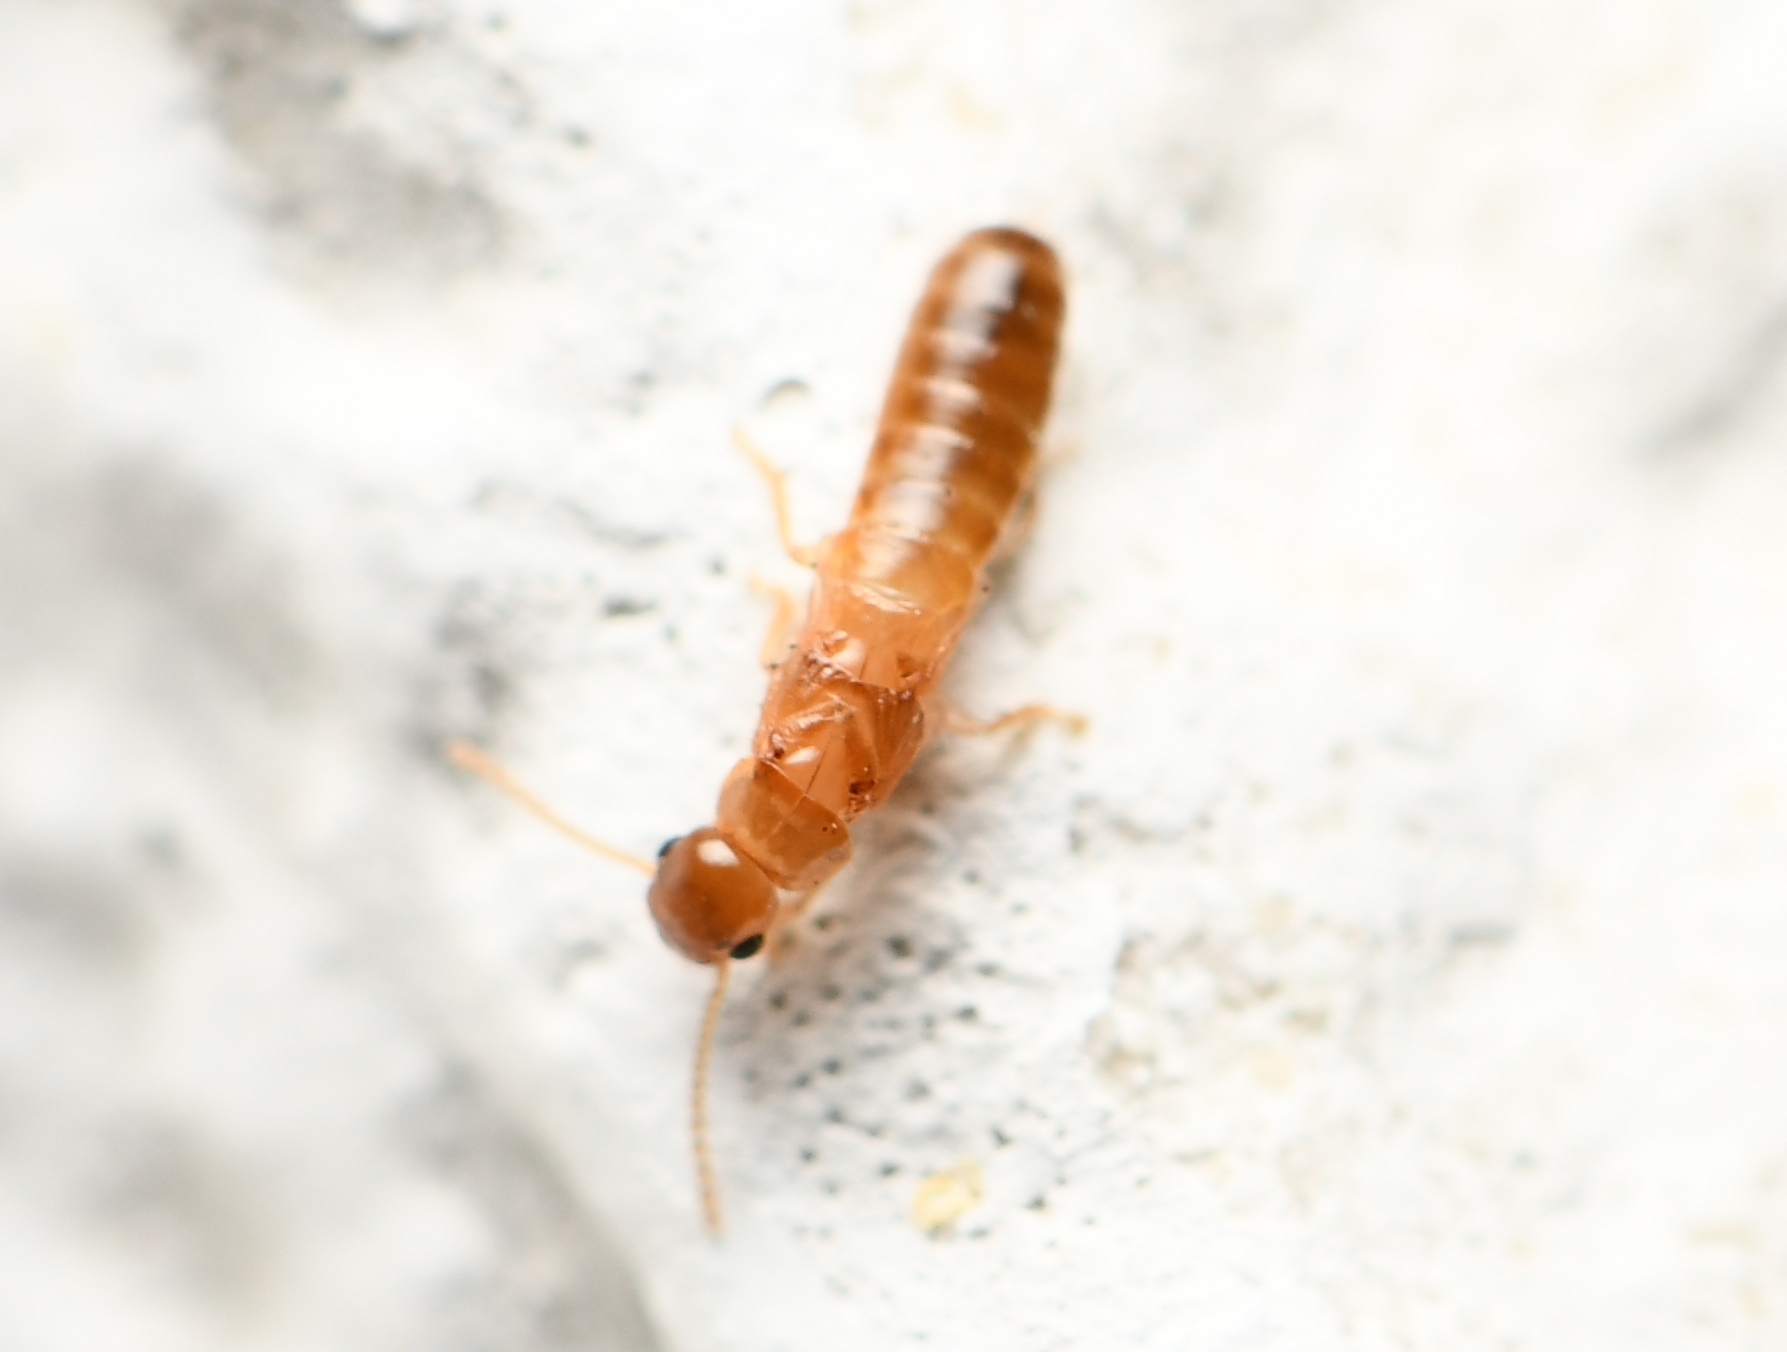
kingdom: Animalia
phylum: Arthropoda
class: Insecta
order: Blattodea
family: Kalotermitidae
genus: Cryptotermes
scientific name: Cryptotermes cavifrons
